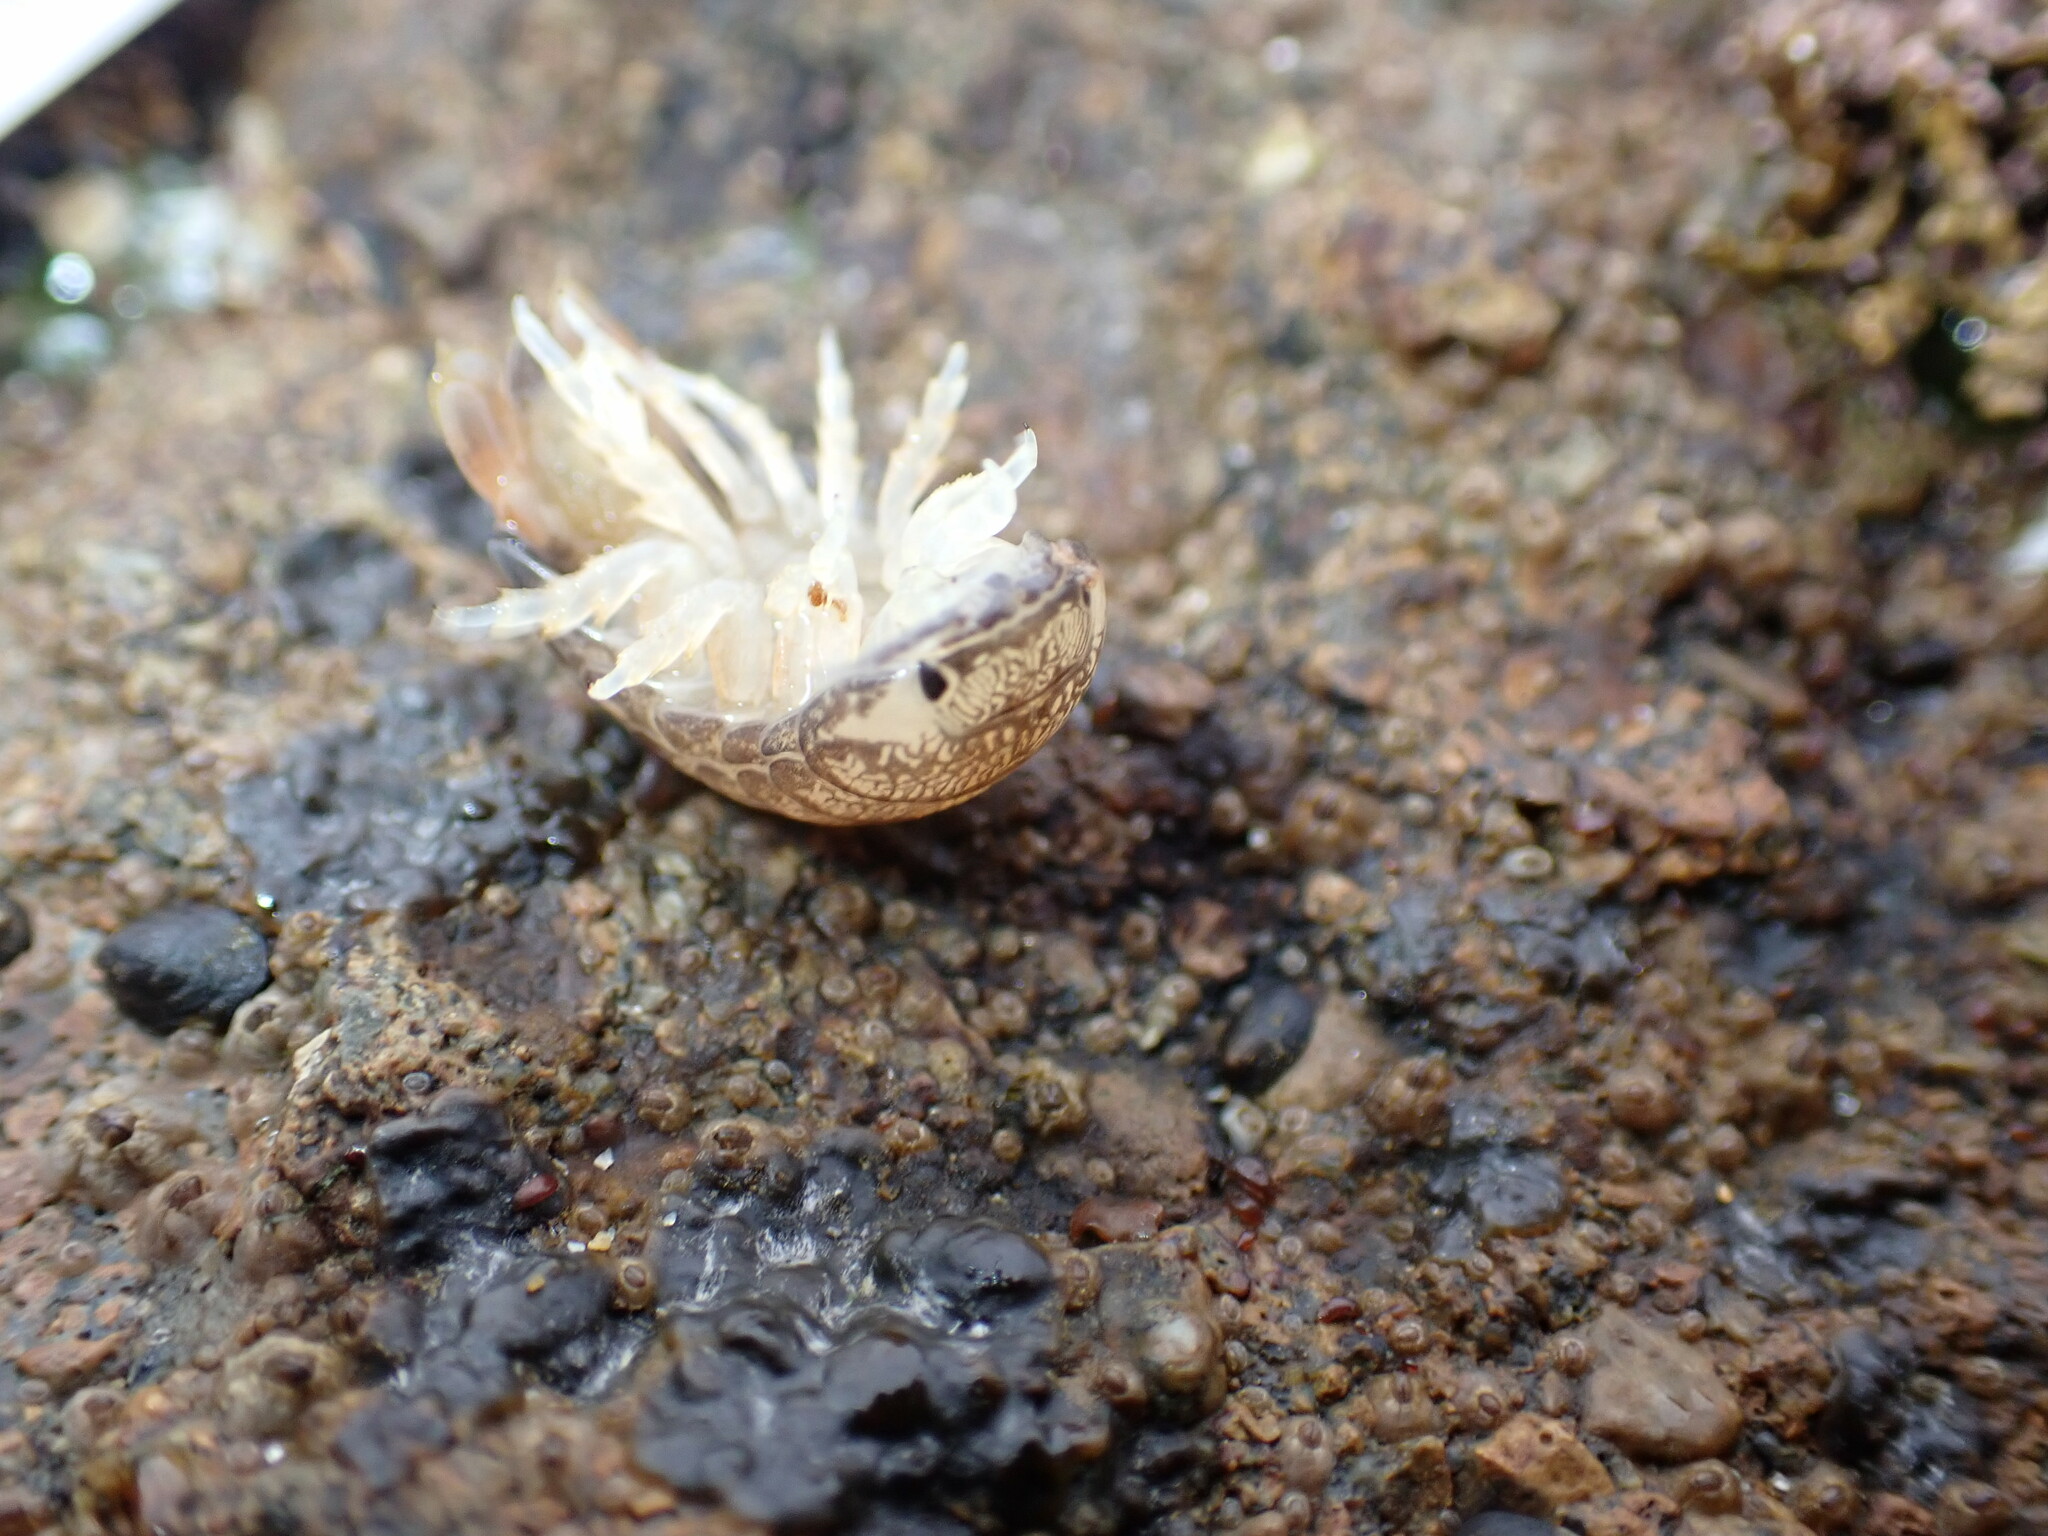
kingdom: Animalia
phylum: Arthropoda
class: Malacostraca
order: Isopoda
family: Cirolanidae
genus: Cirolana
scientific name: Cirolana harfordi
